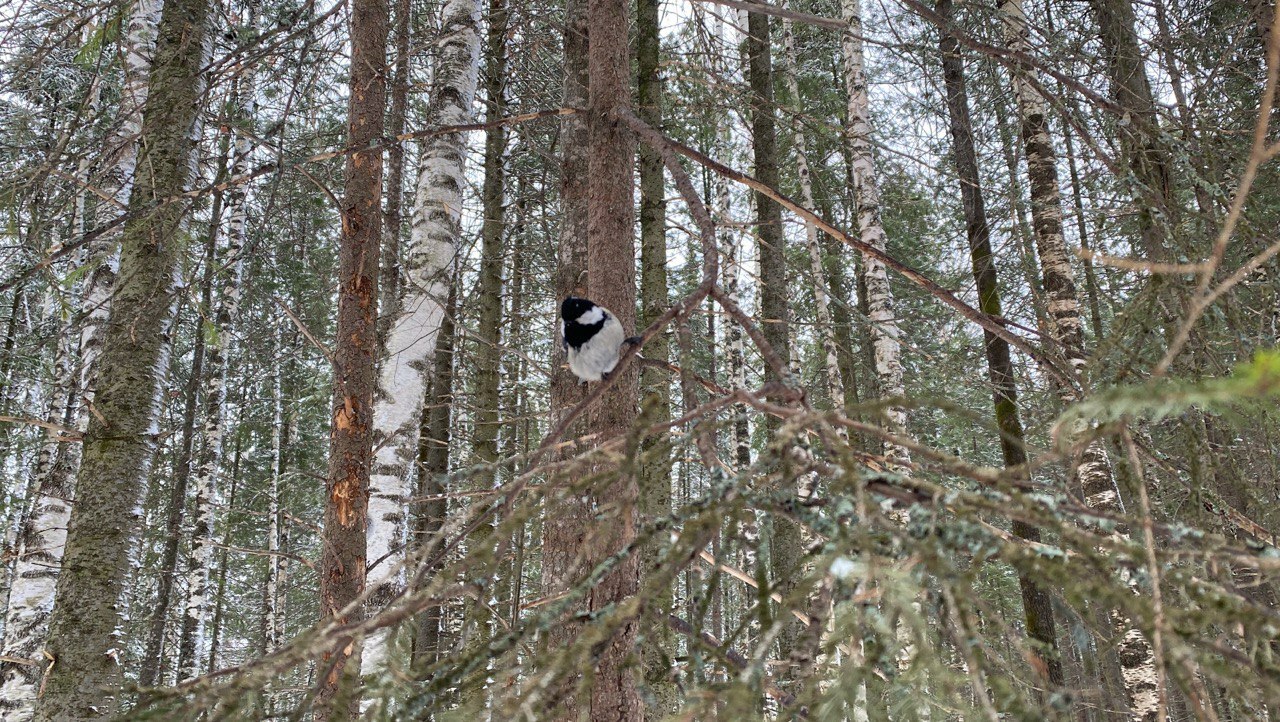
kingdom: Animalia
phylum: Chordata
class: Aves
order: Passeriformes
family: Paridae
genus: Periparus
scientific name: Periparus ater
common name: Coal tit
